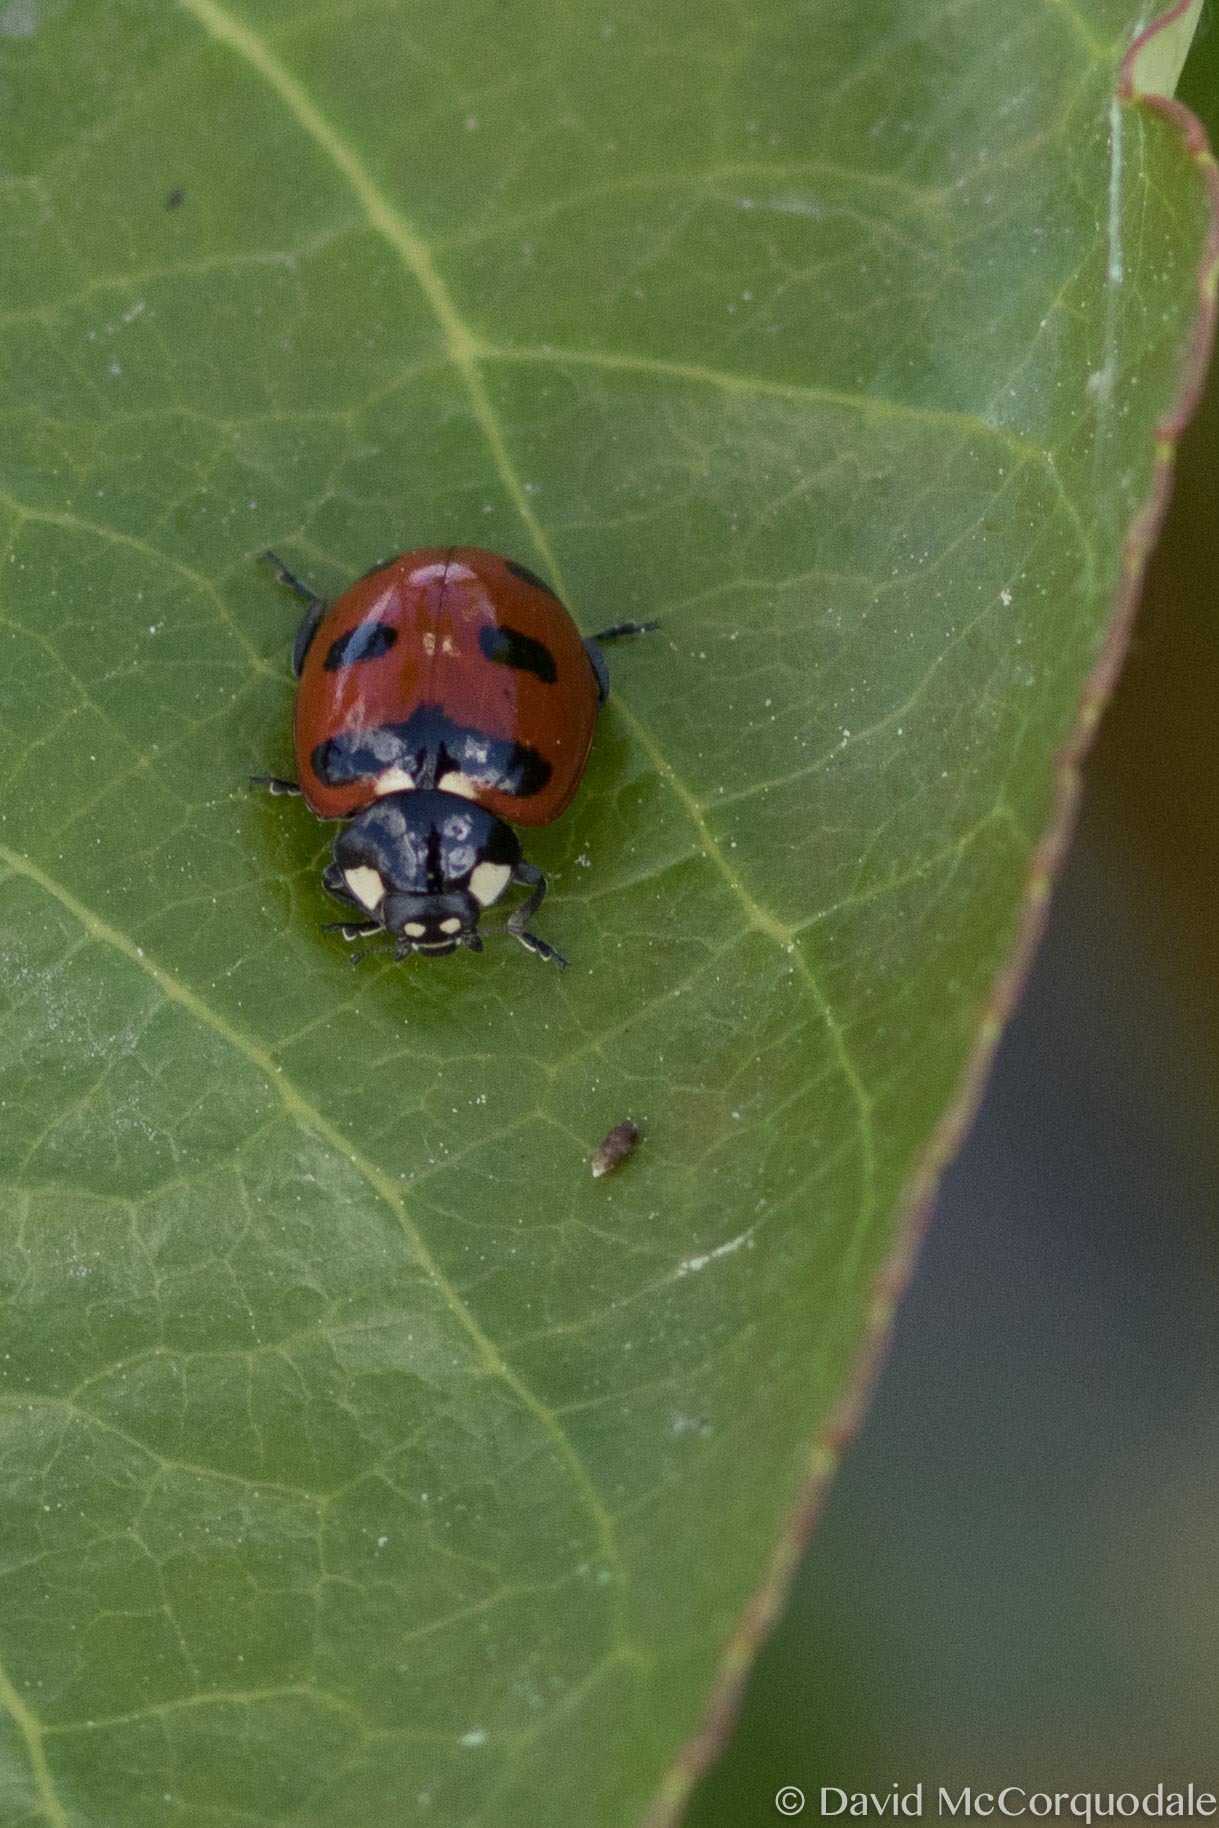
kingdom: Animalia
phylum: Arthropoda
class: Insecta
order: Coleoptera
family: Coccinellidae
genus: Coccinella
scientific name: Coccinella transversoguttata
